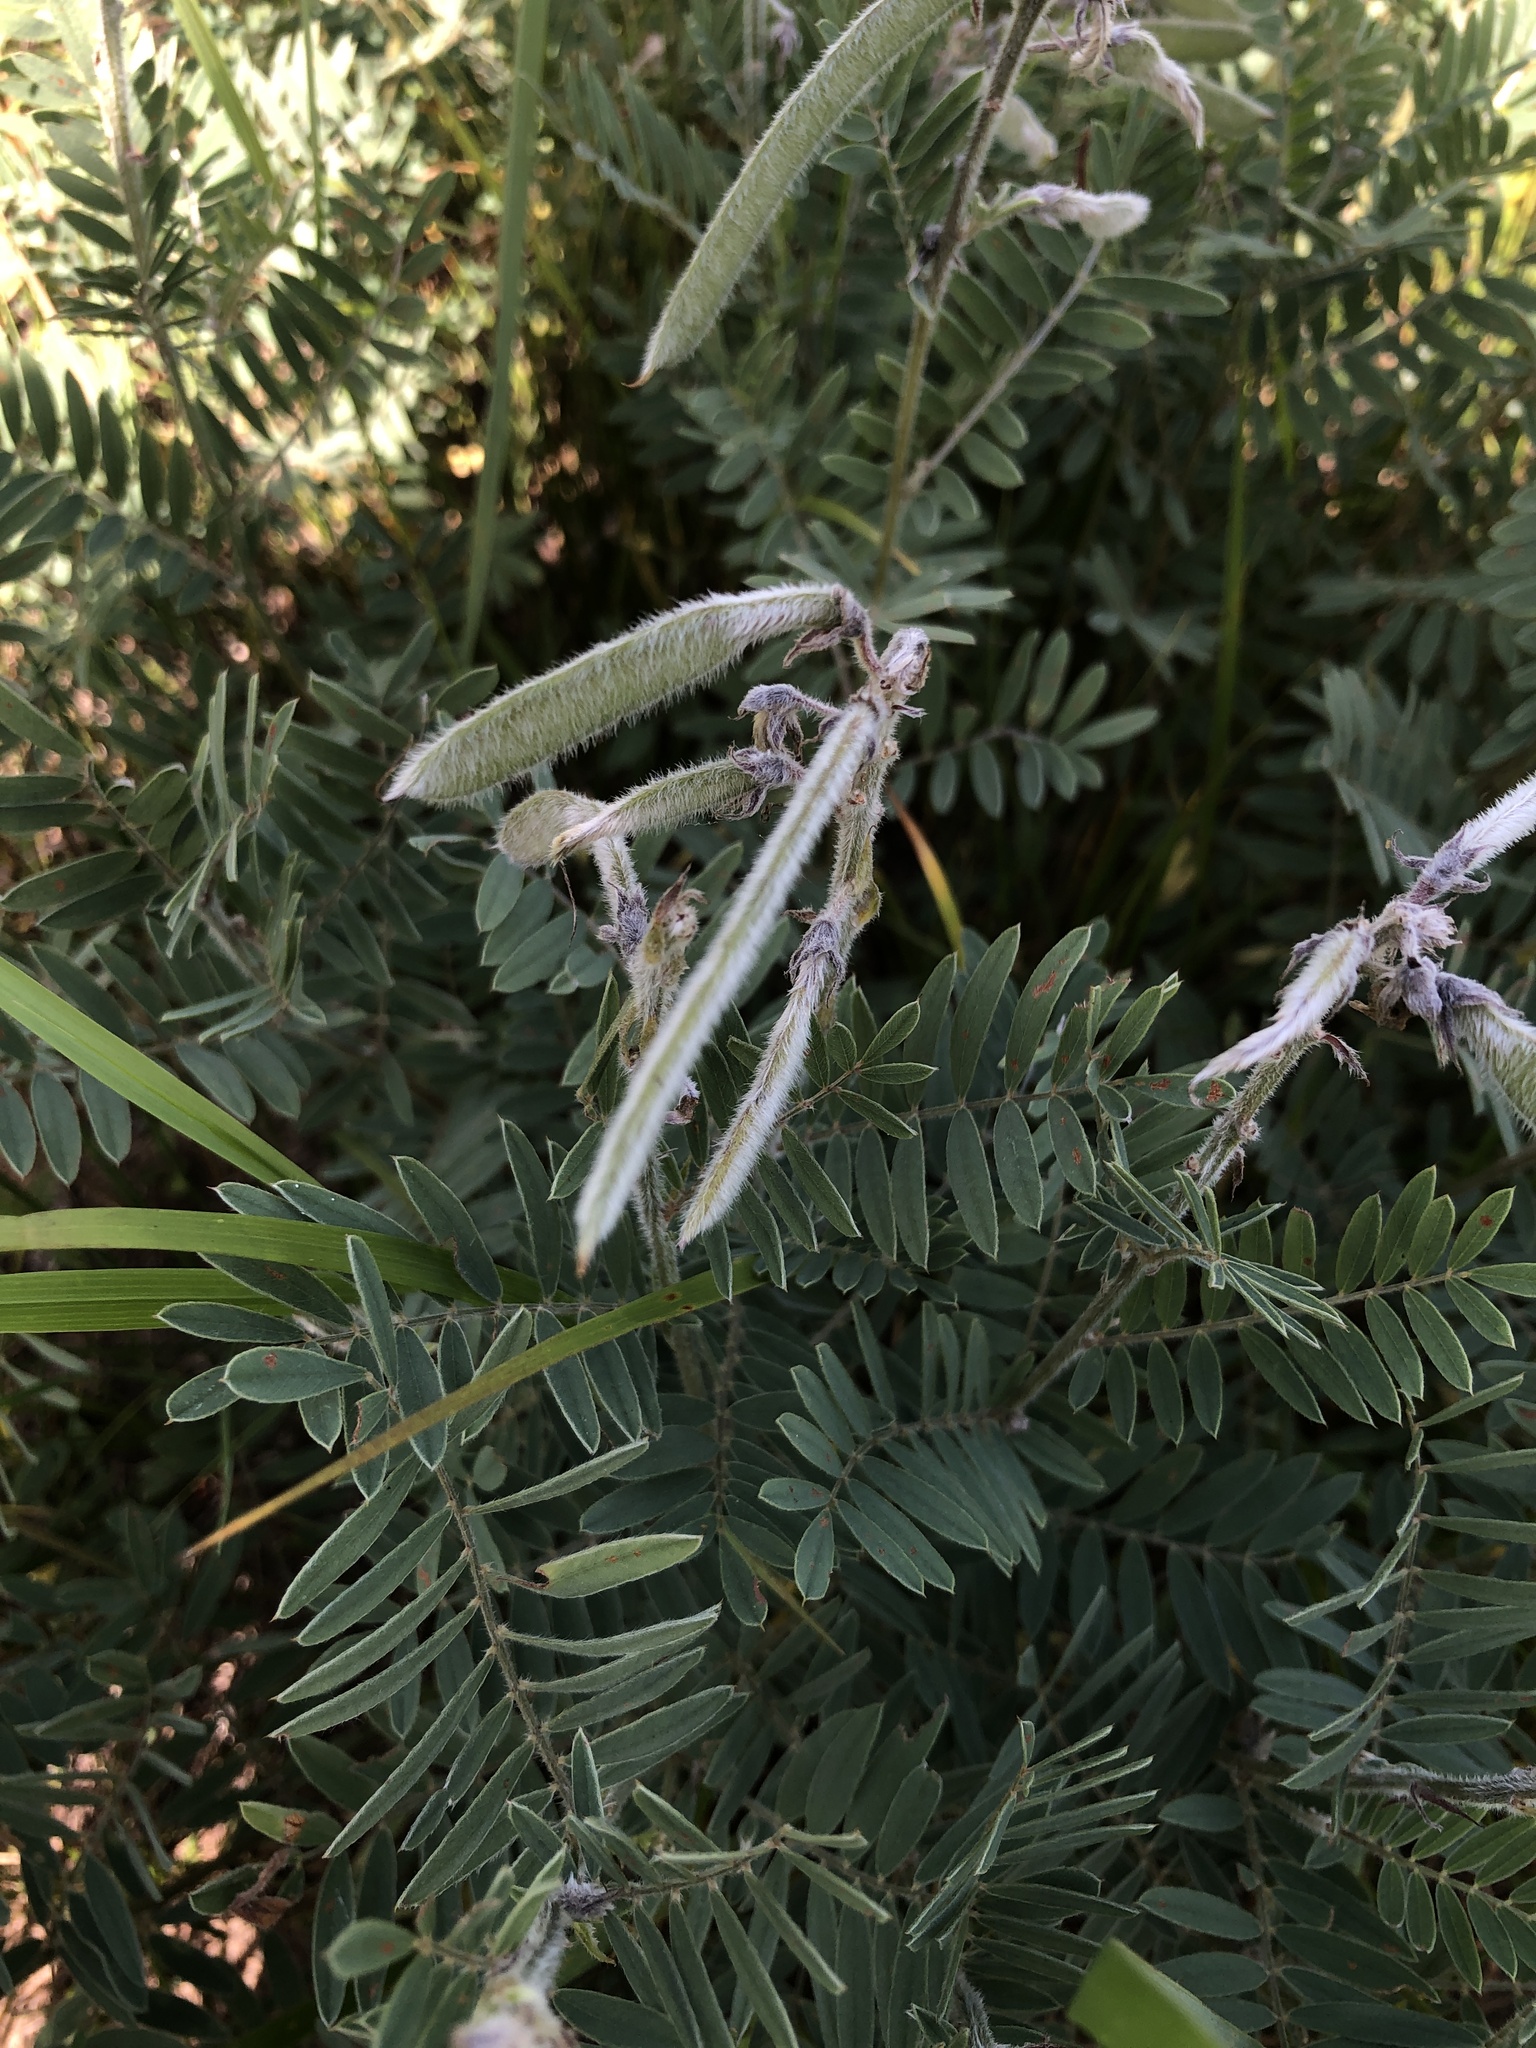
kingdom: Plantae
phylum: Tracheophyta
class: Magnoliopsida
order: Fabales
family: Fabaceae
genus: Tephrosia
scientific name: Tephrosia virginiana
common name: Rabbit-pea
